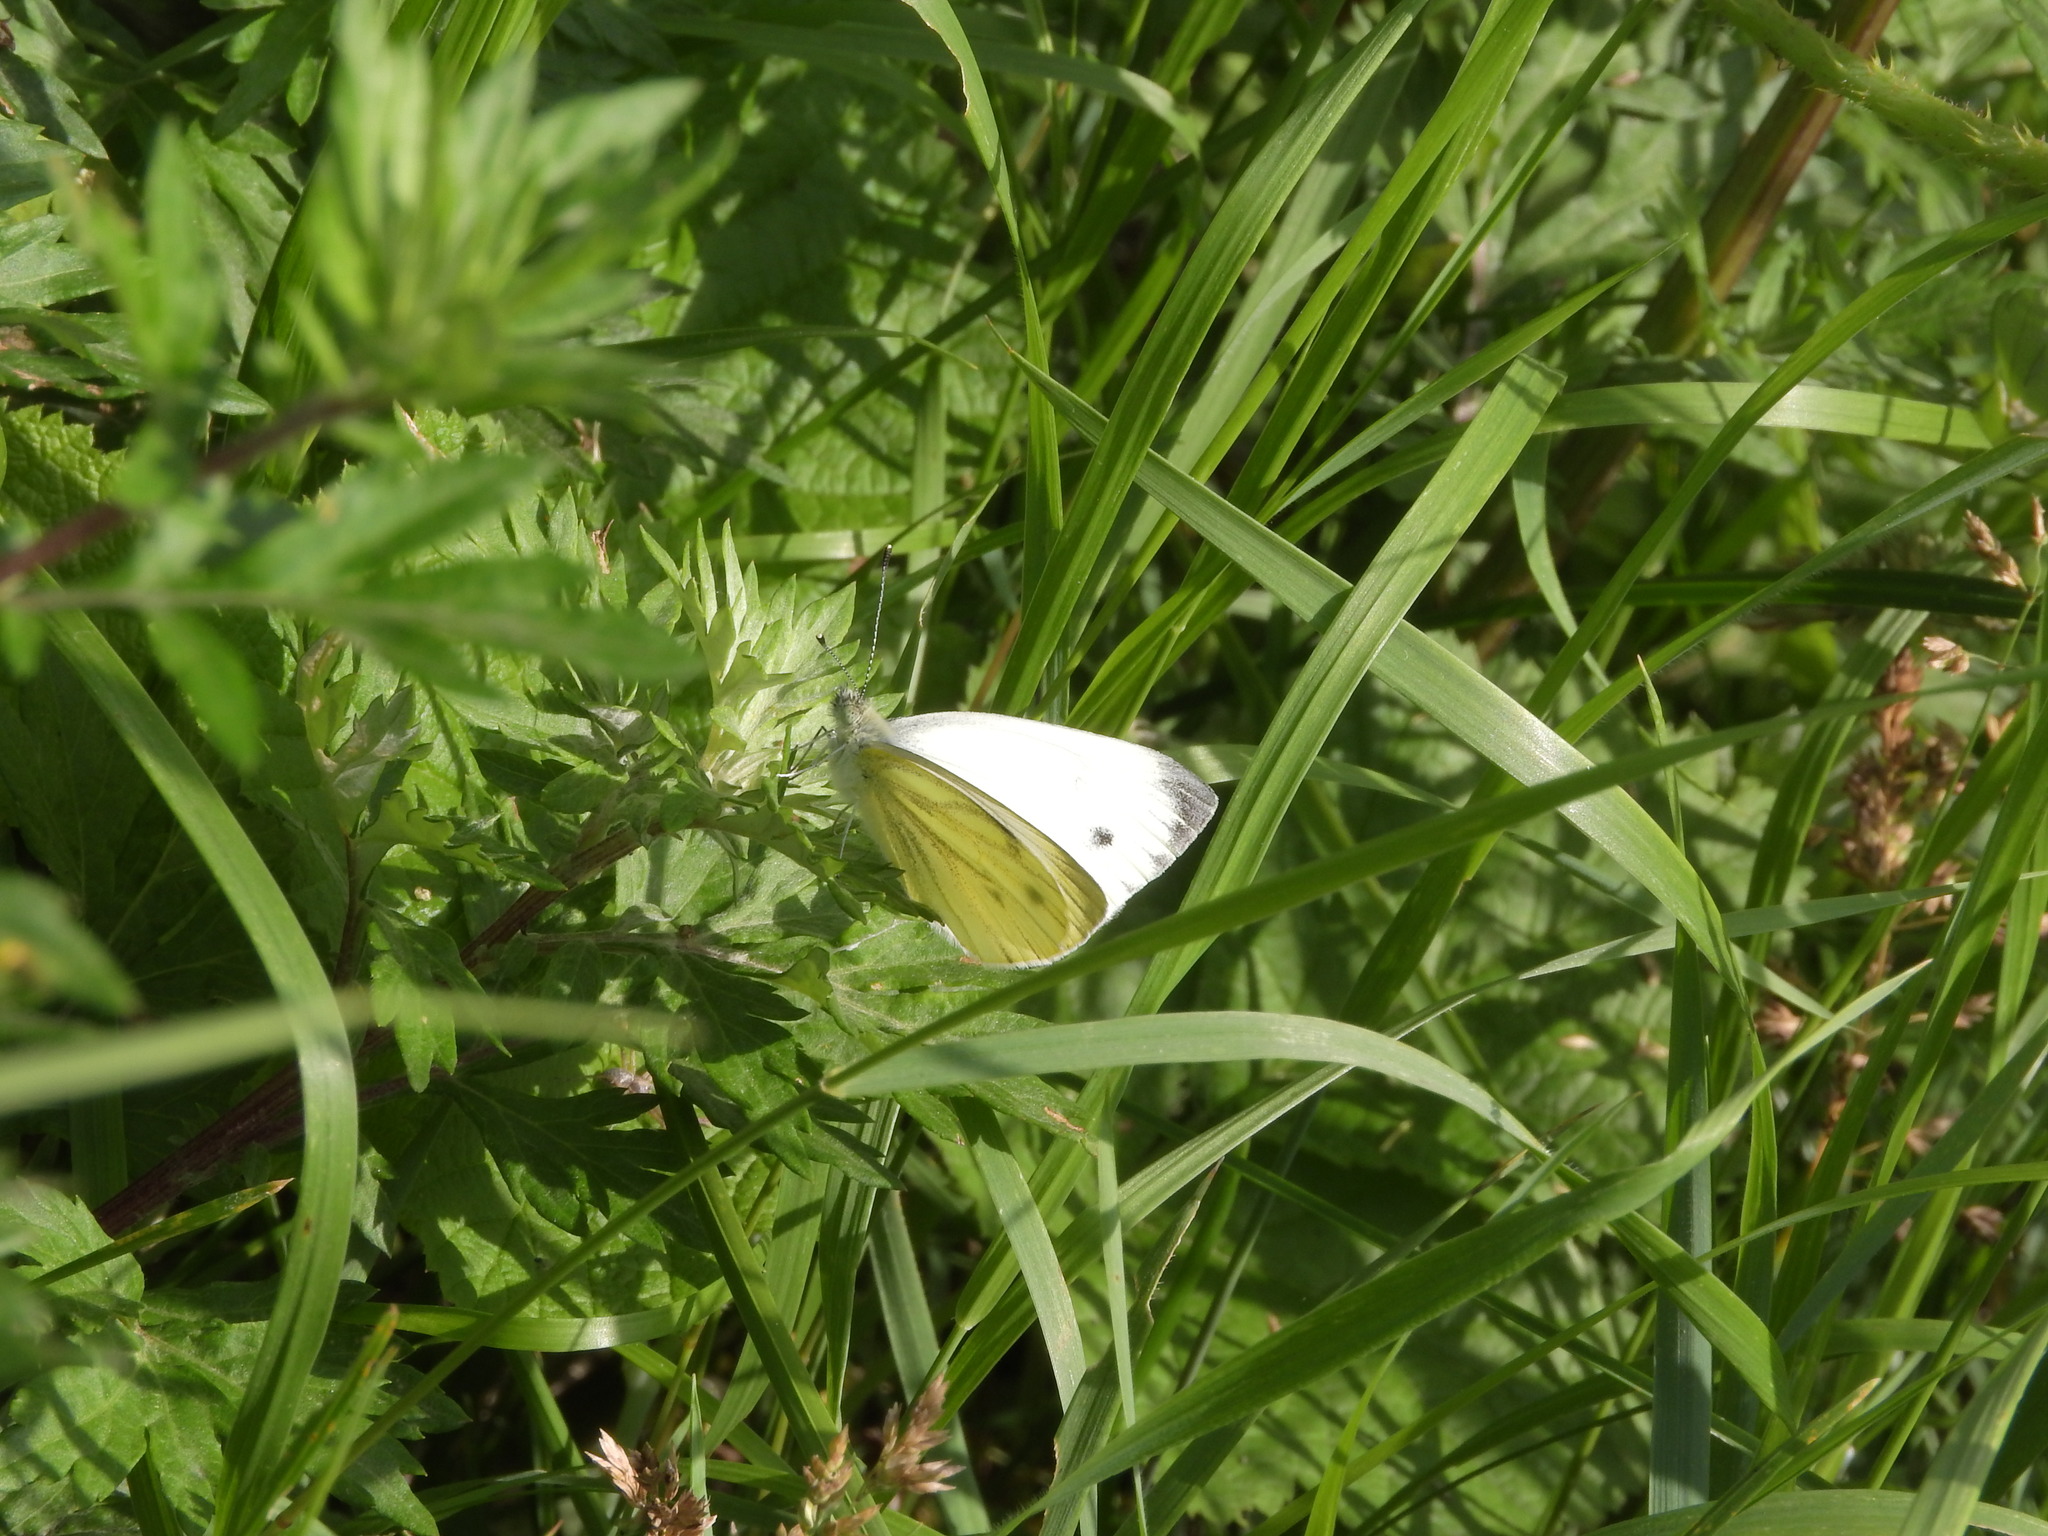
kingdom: Animalia
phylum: Arthropoda
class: Insecta
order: Lepidoptera
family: Pieridae
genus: Pieris
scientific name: Pieris napi
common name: Green-veined white
